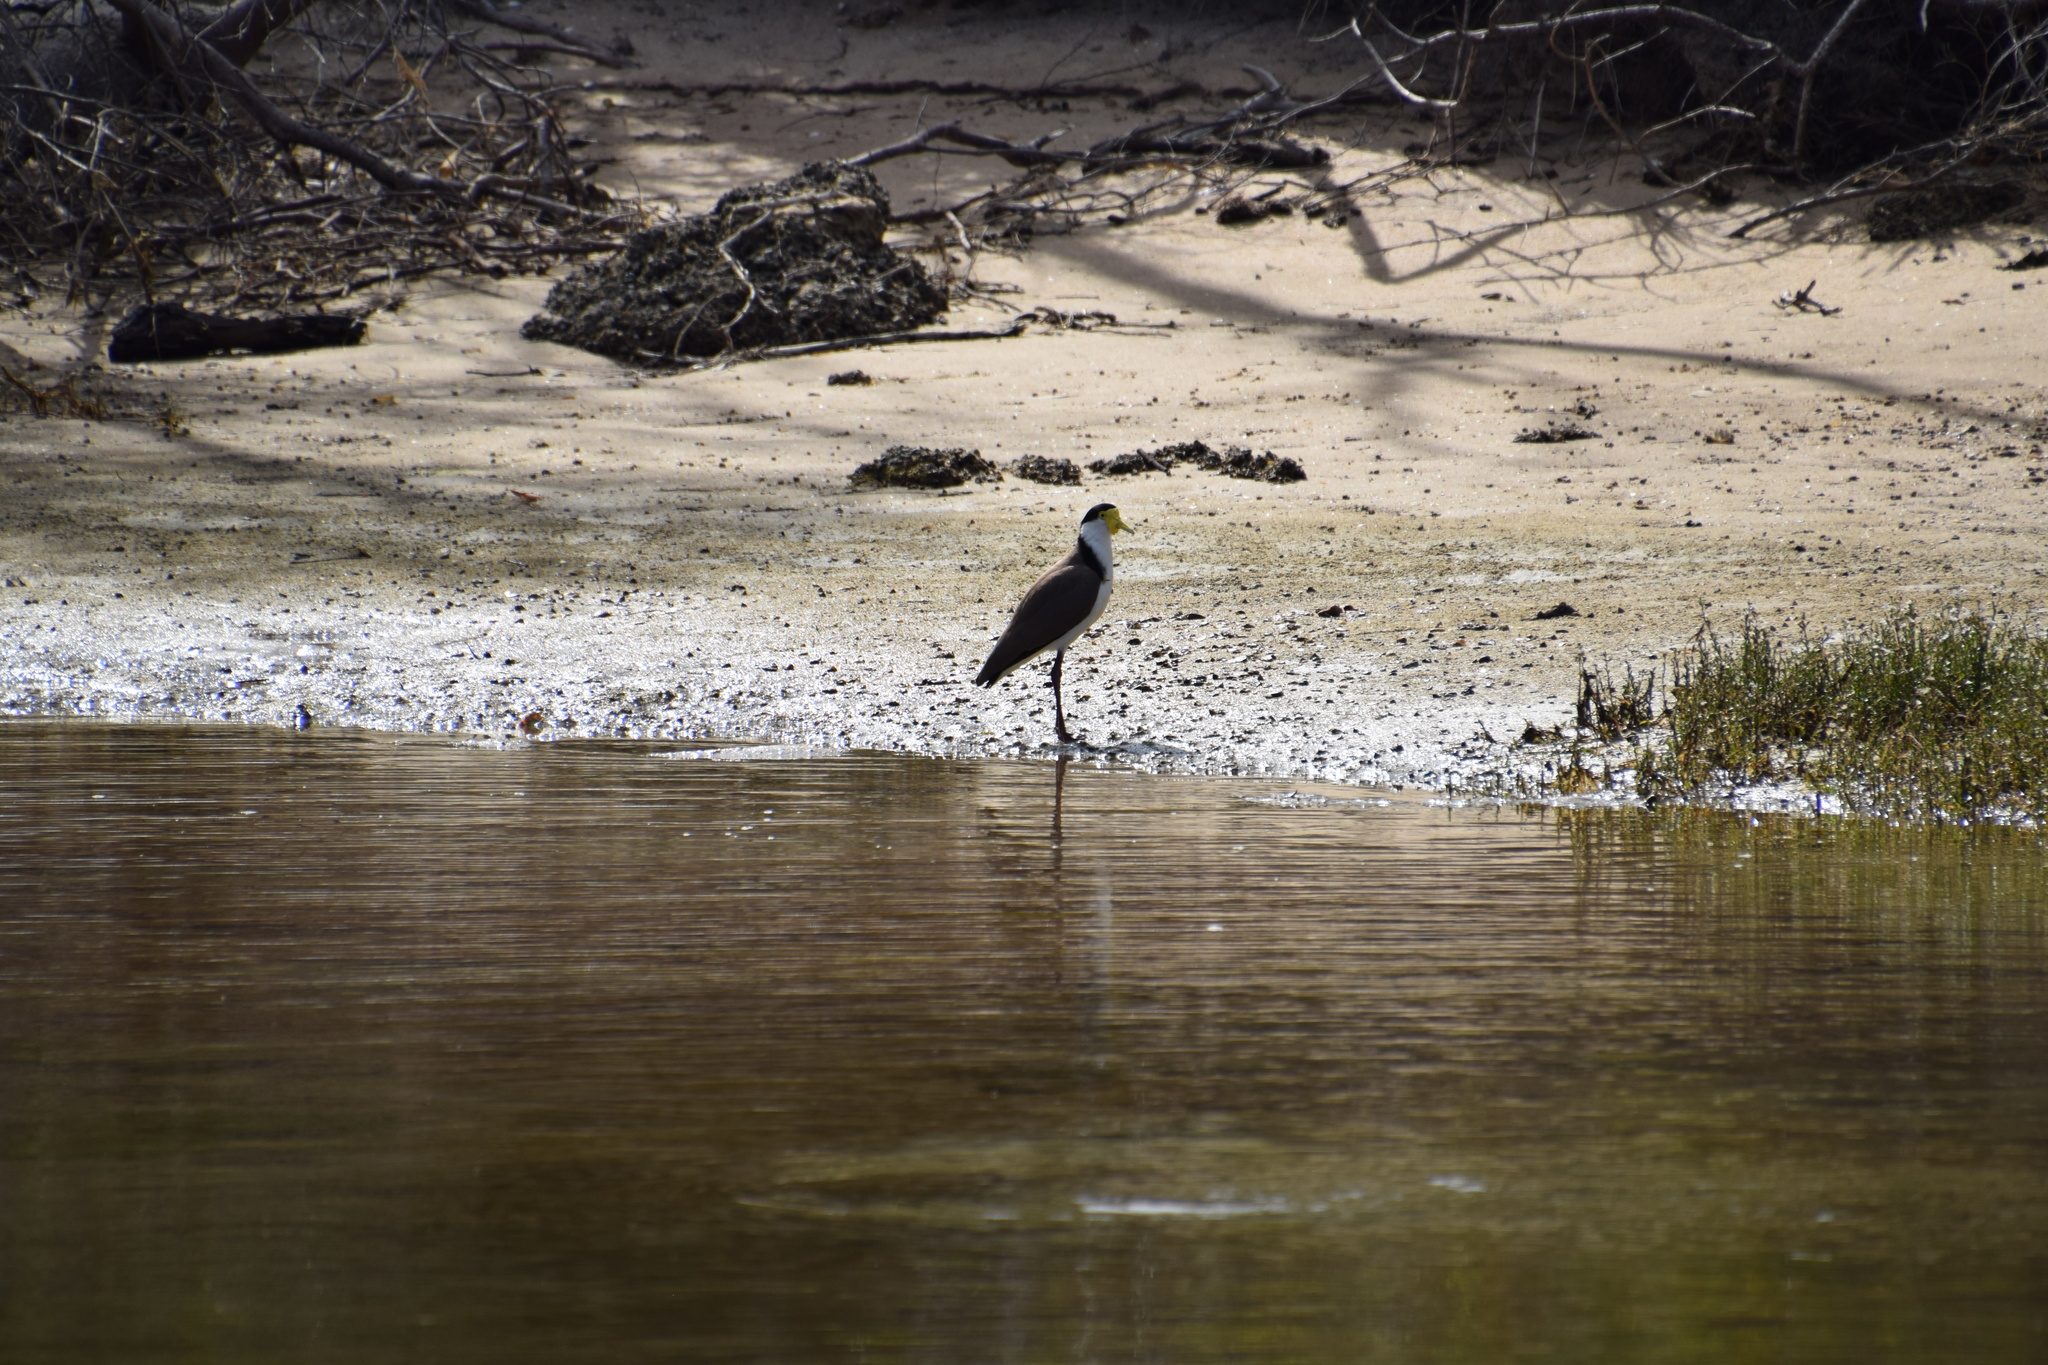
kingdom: Animalia
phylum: Chordata
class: Aves
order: Charadriiformes
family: Charadriidae
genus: Vanellus
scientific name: Vanellus miles
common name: Masked lapwing
